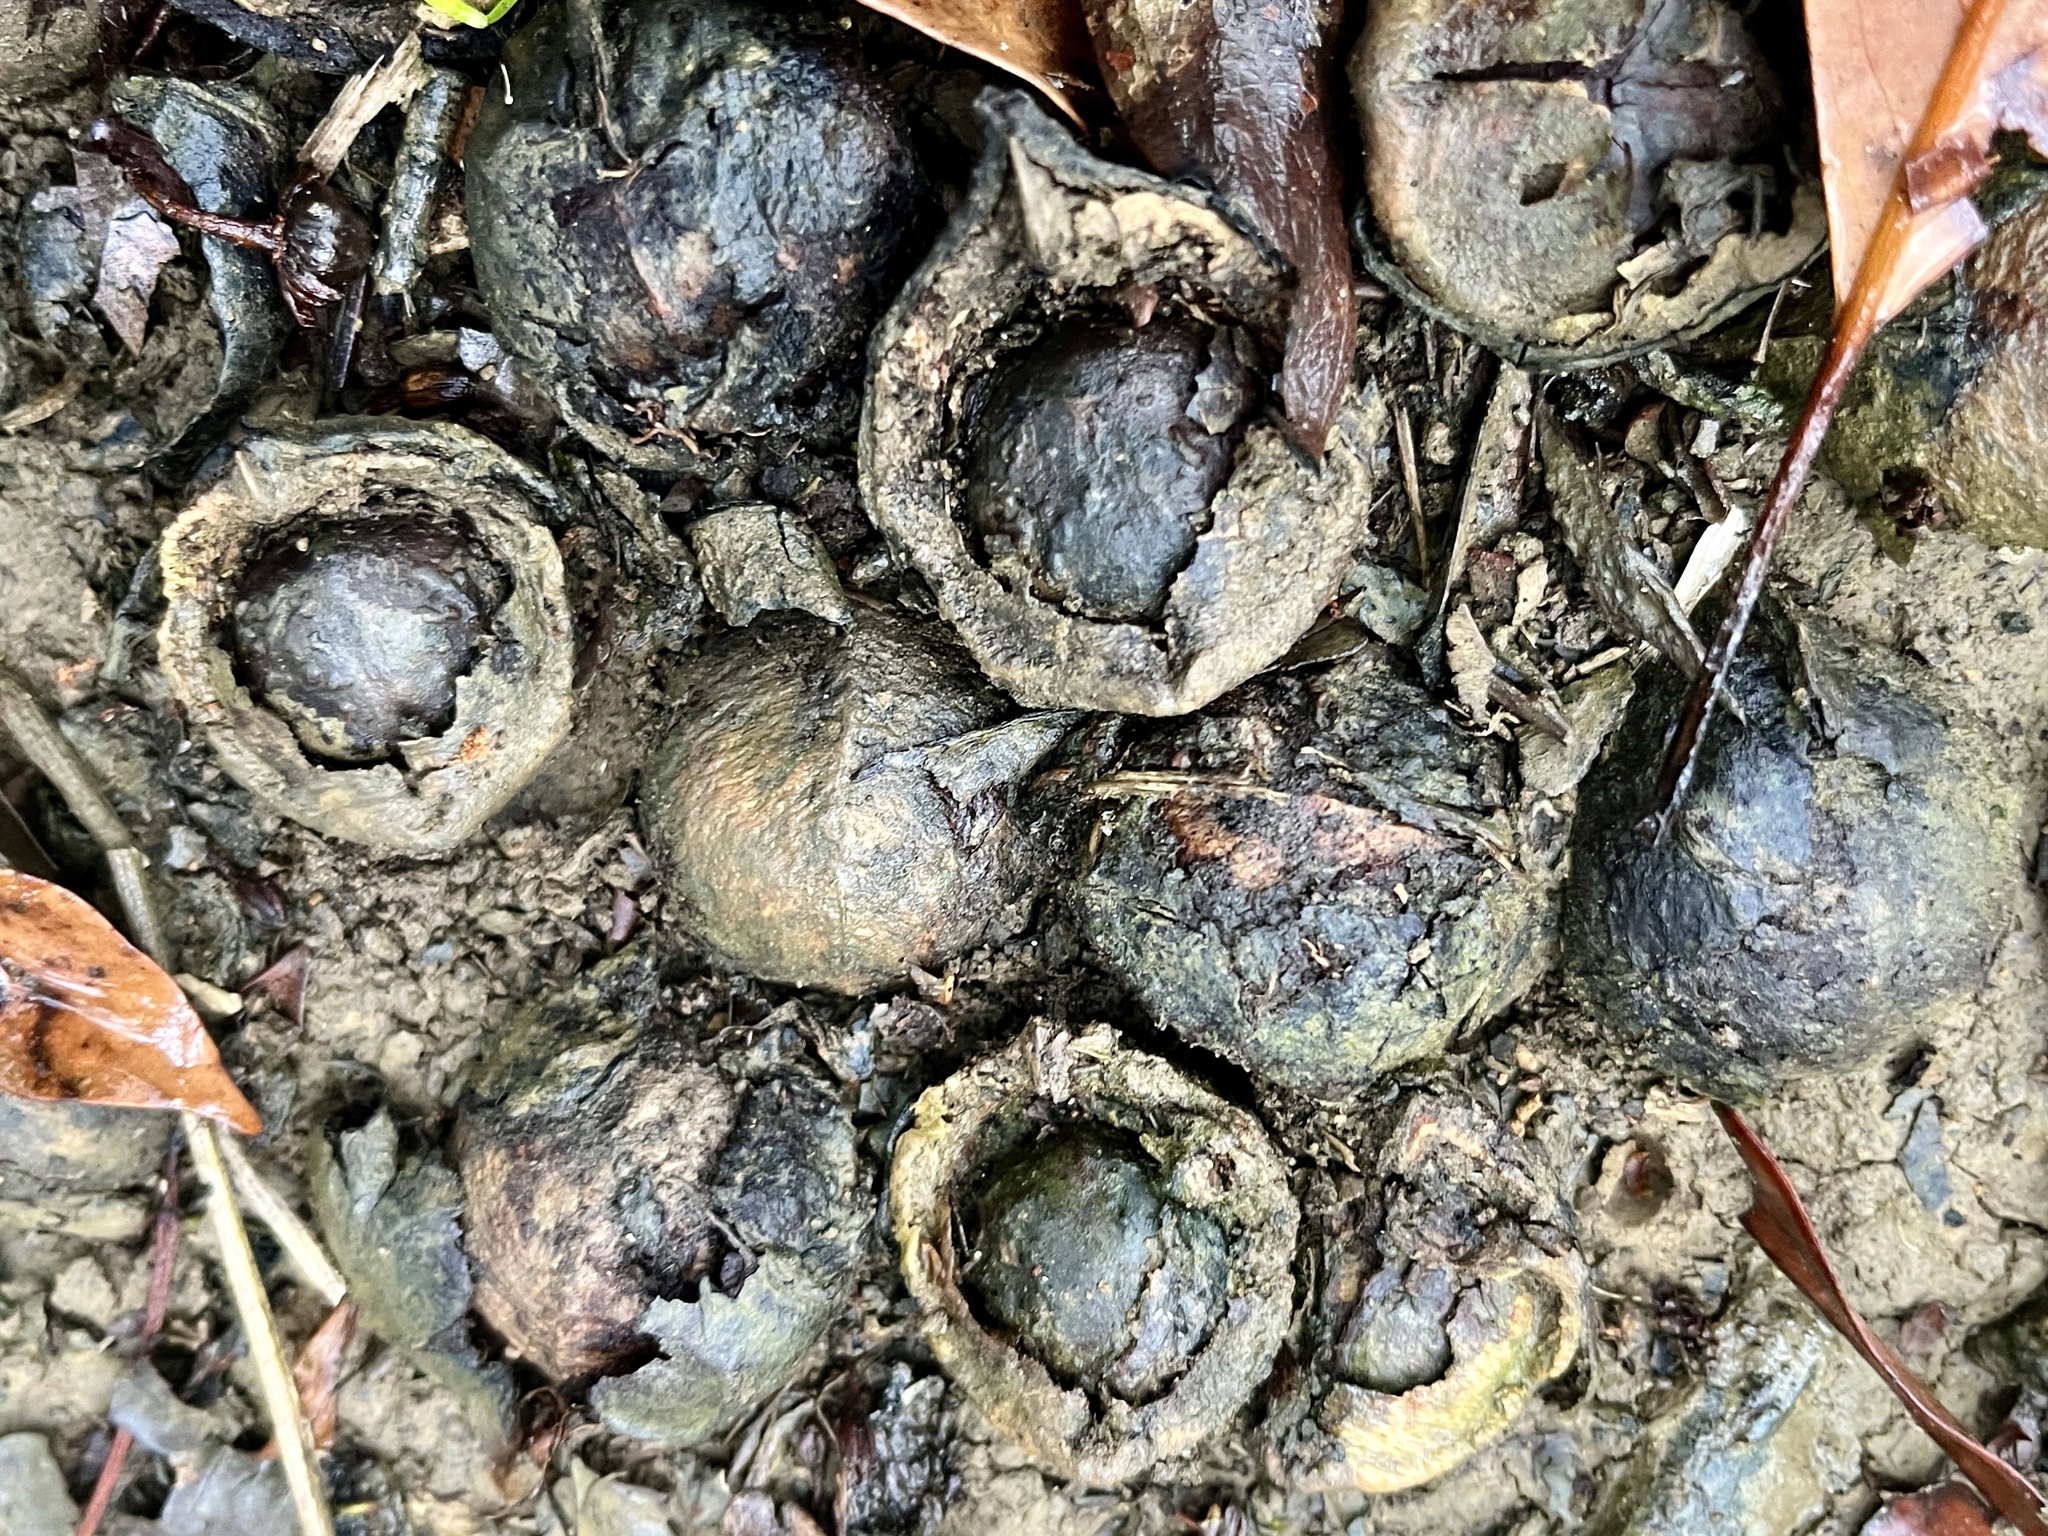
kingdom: Plantae
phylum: Tracheophyta
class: Magnoliopsida
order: Malpighiales
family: Euphorbiaceae
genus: Vernicia
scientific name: Vernicia montana
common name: Mu oil tree
